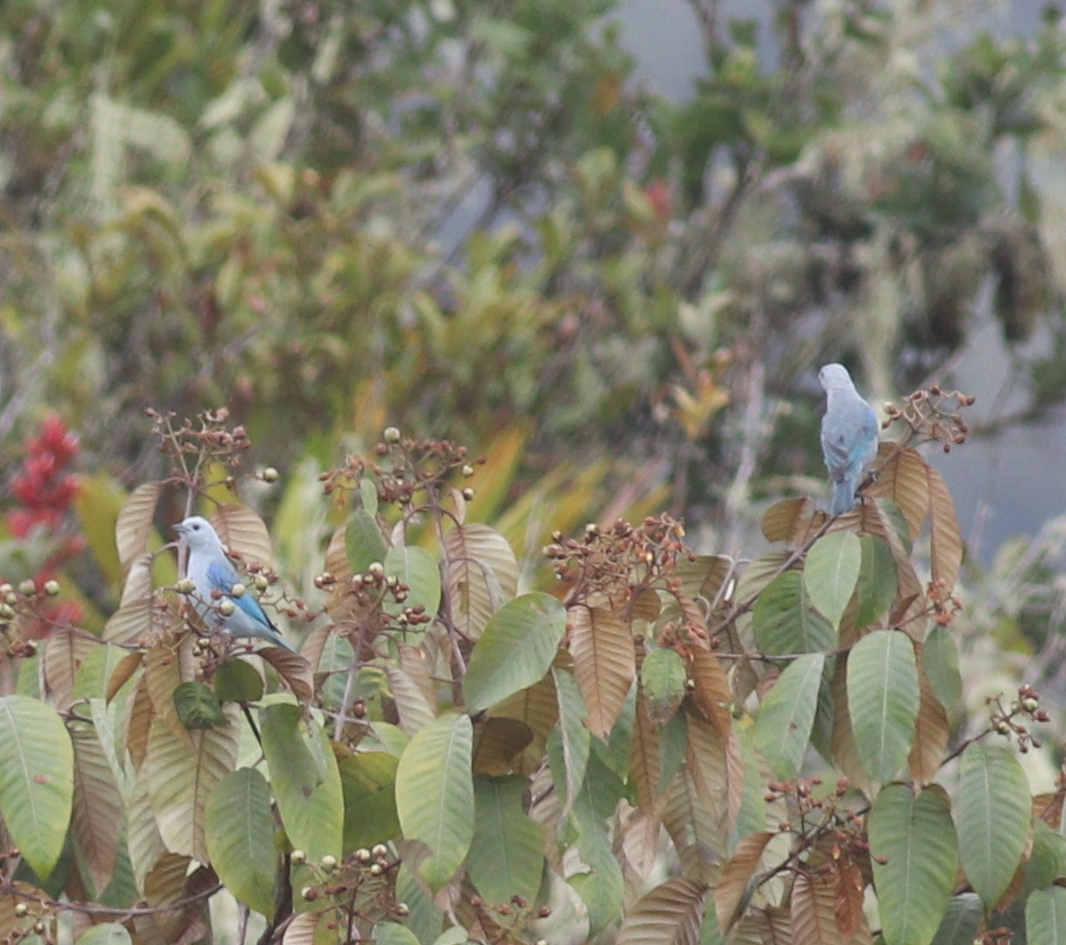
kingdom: Animalia
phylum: Chordata
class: Aves
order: Passeriformes
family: Thraupidae
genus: Thraupis
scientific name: Thraupis episcopus
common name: Blue-grey tanager
